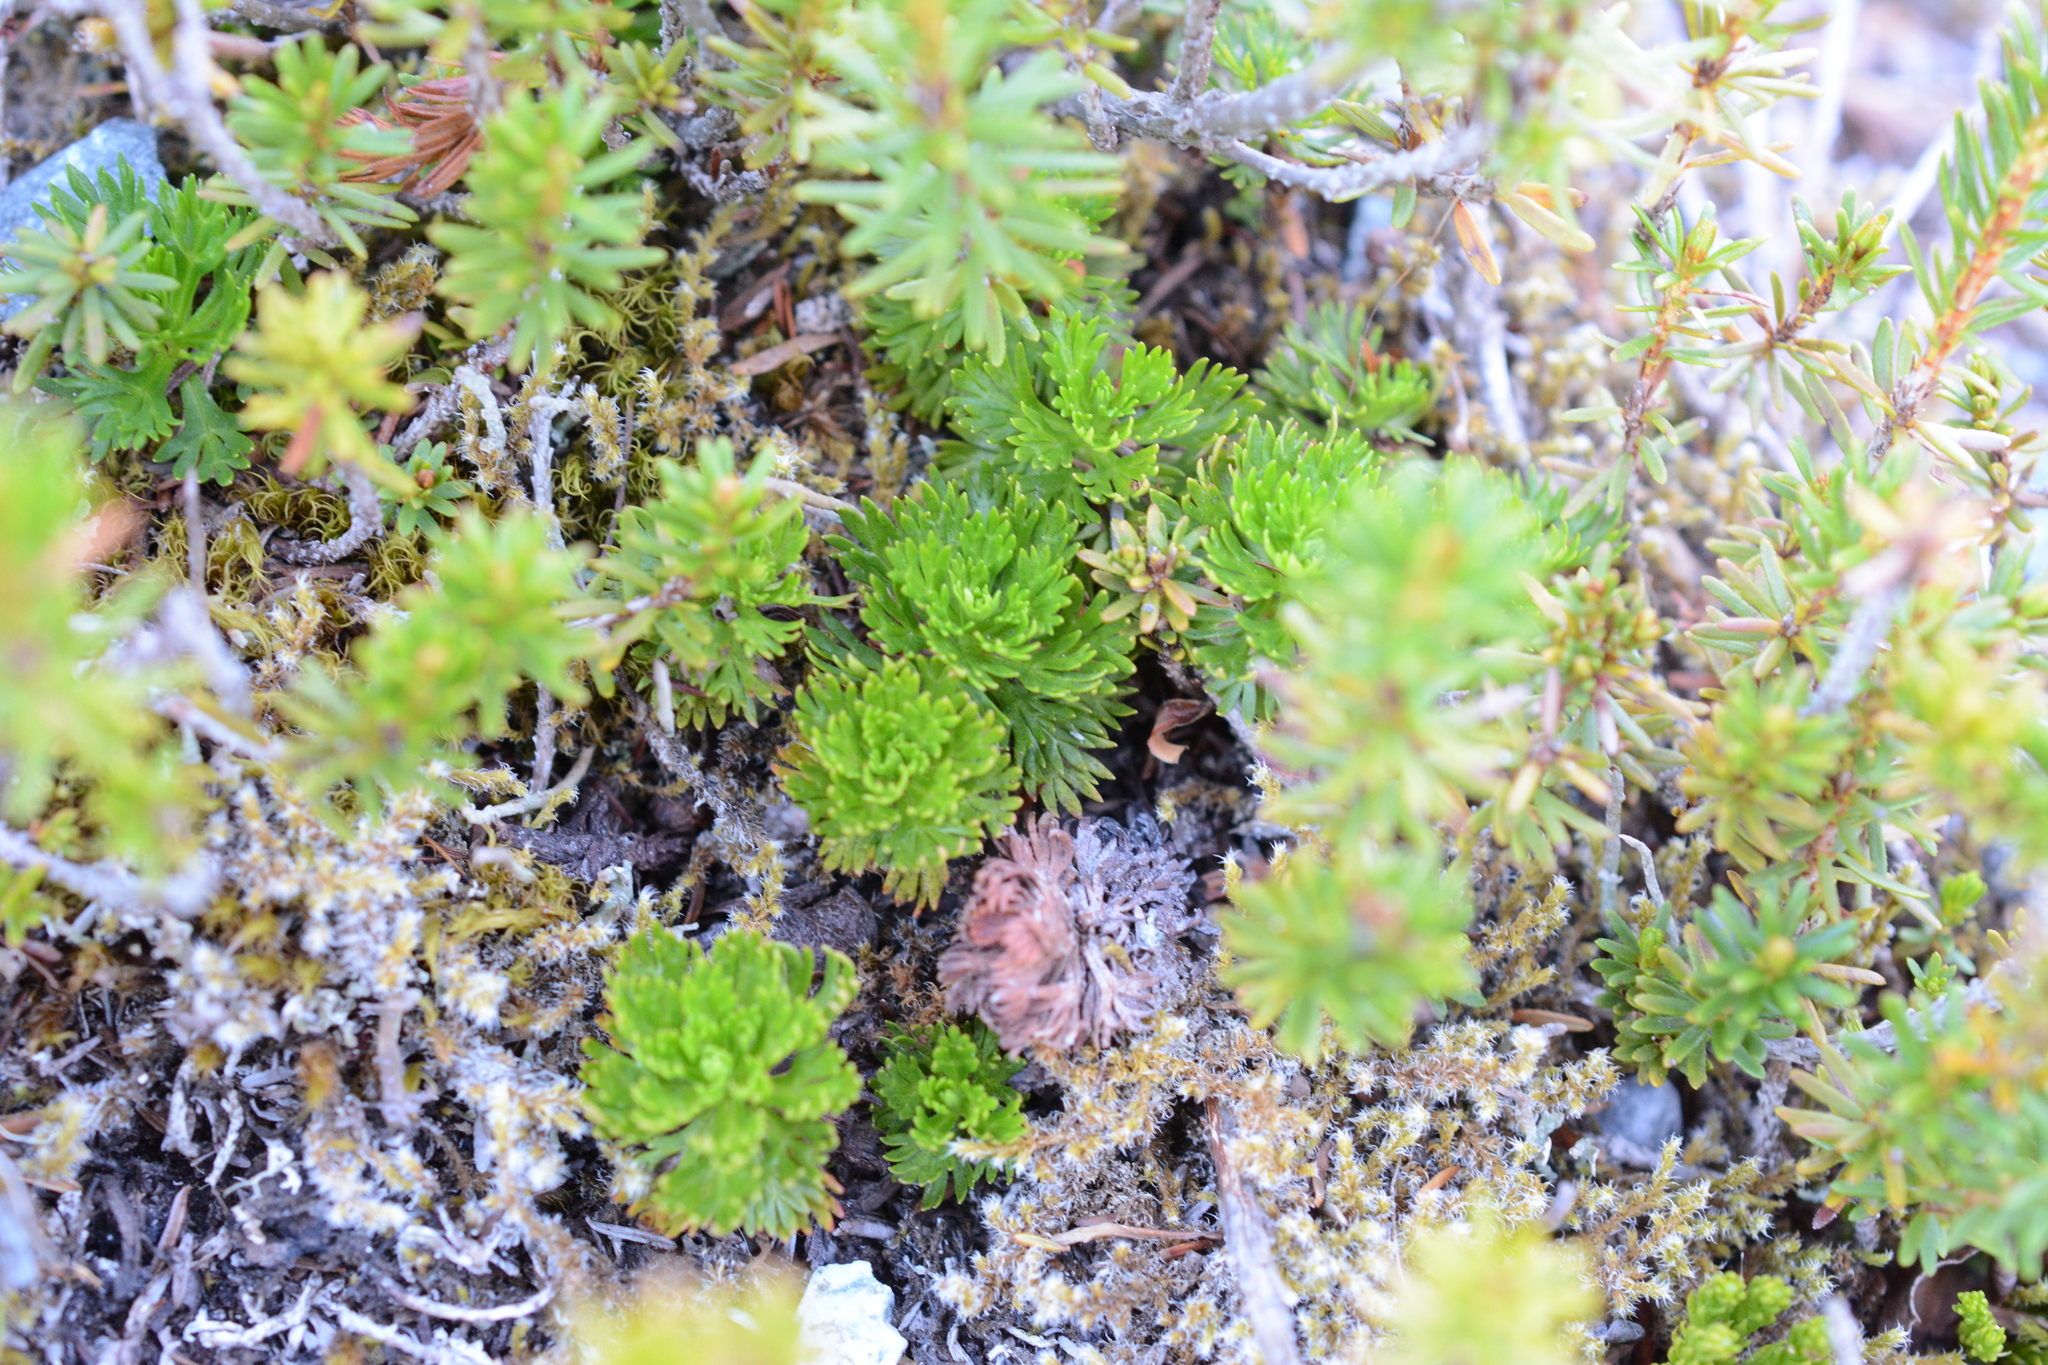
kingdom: Plantae
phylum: Tracheophyta
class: Magnoliopsida
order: Rosales
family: Rosaceae
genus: Luetkea
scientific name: Luetkea pectinata
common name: Partridgefoot
